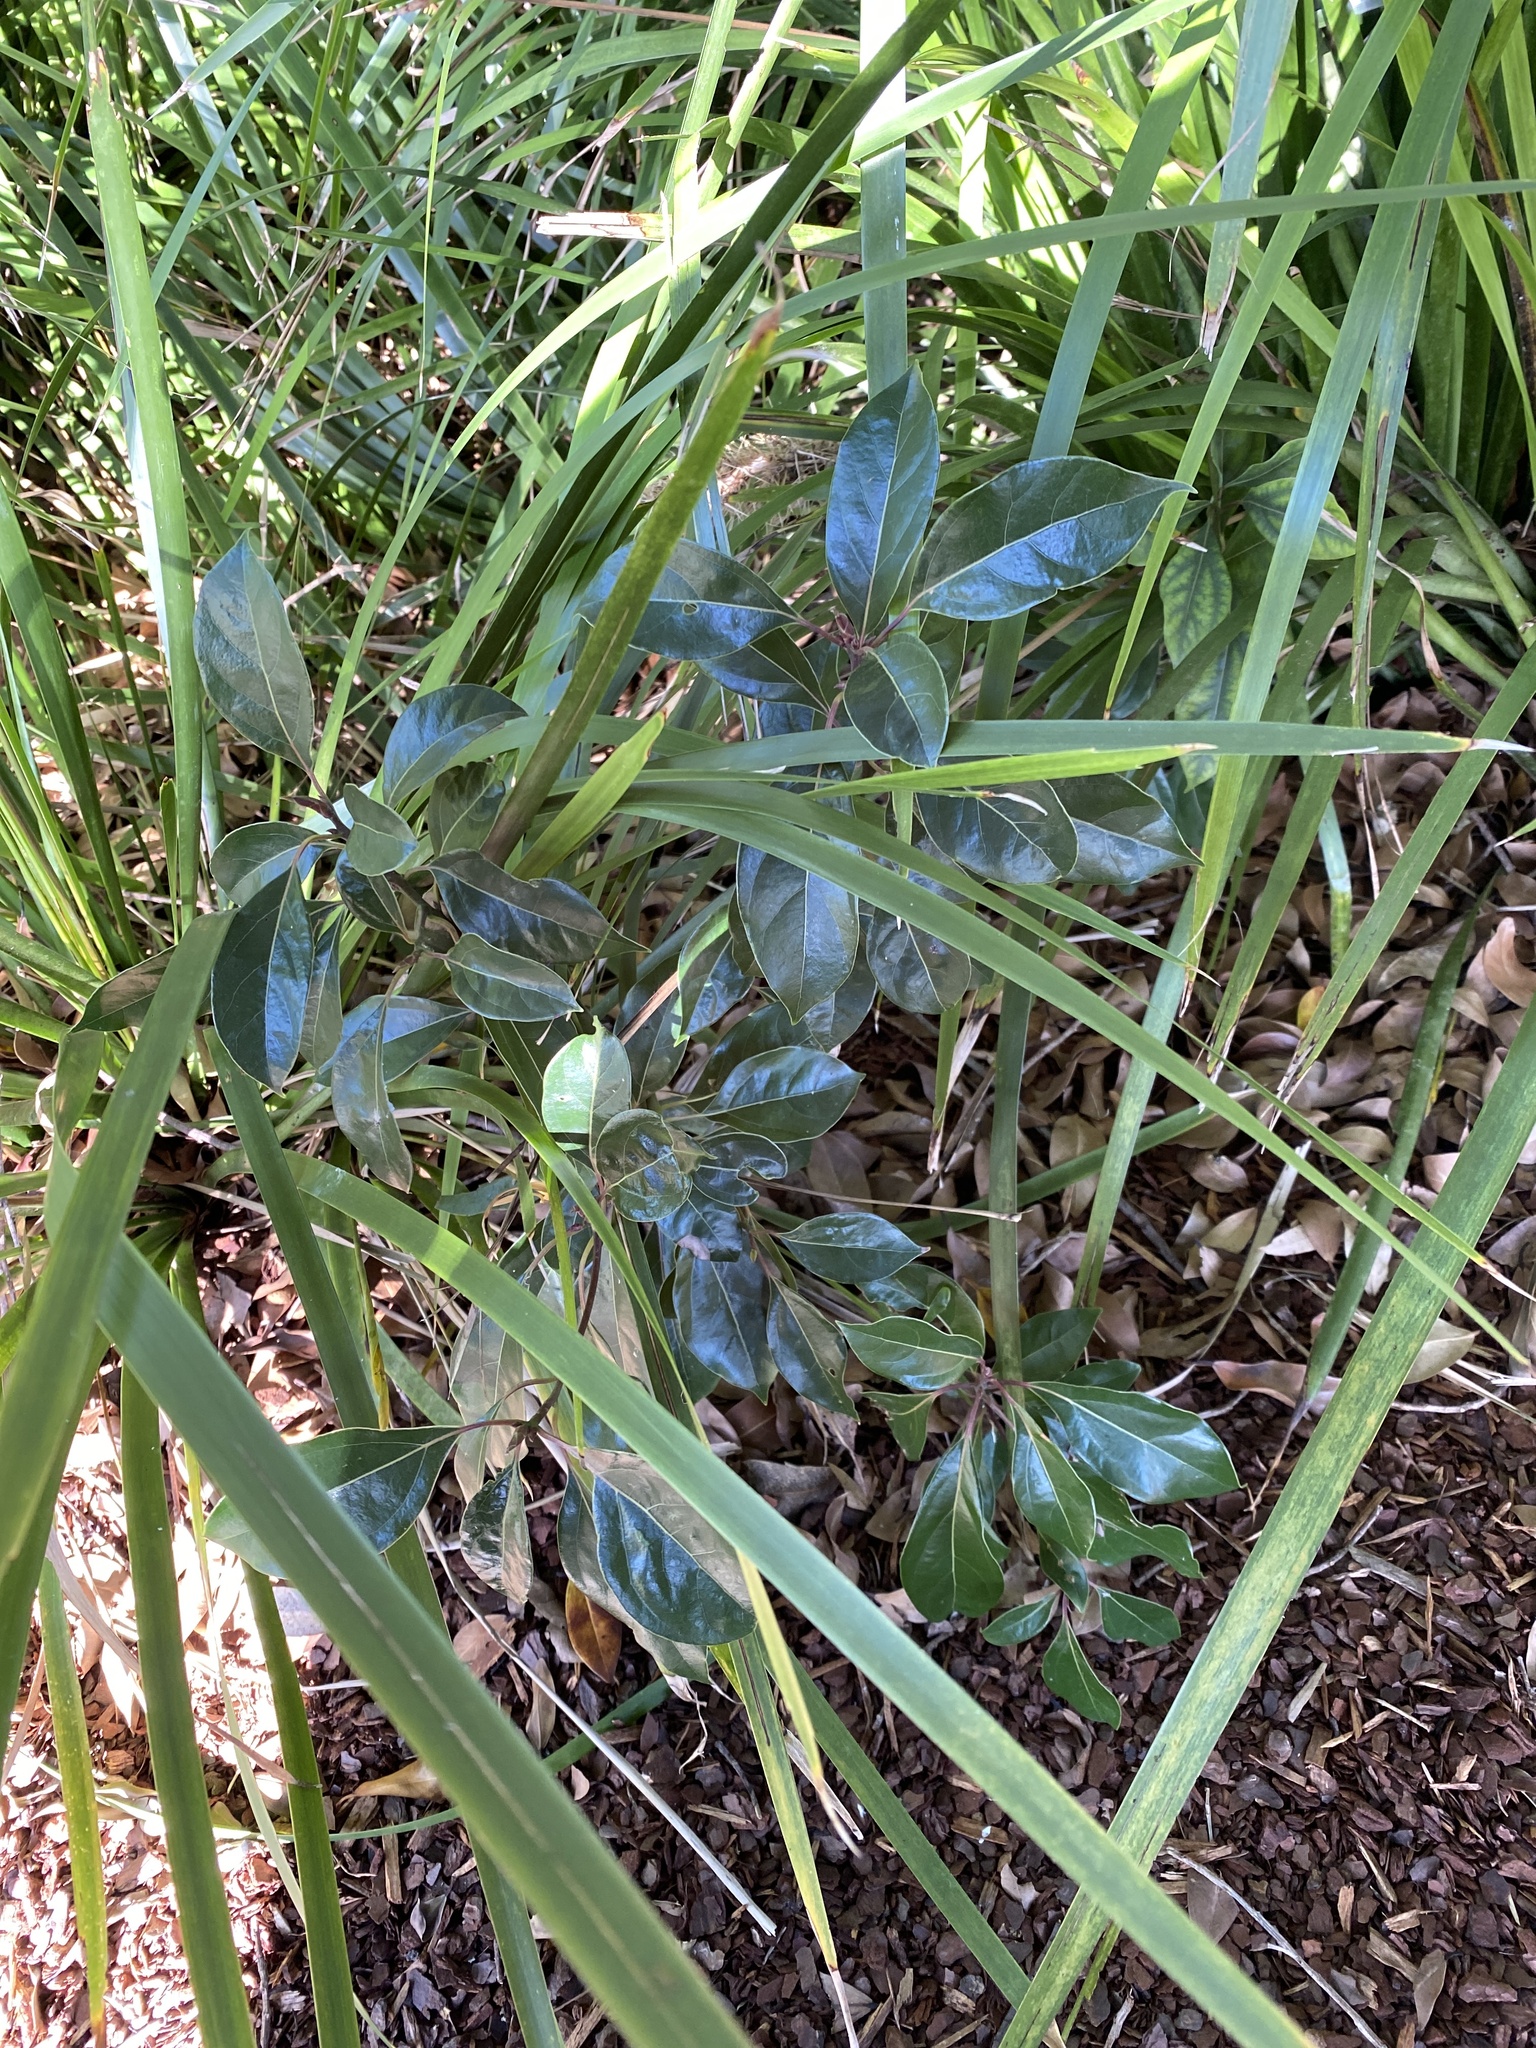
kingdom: Plantae
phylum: Tracheophyta
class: Magnoliopsida
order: Laurales
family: Lauraceae
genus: Cinnamomum
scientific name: Cinnamomum camphora
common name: Camphortree
